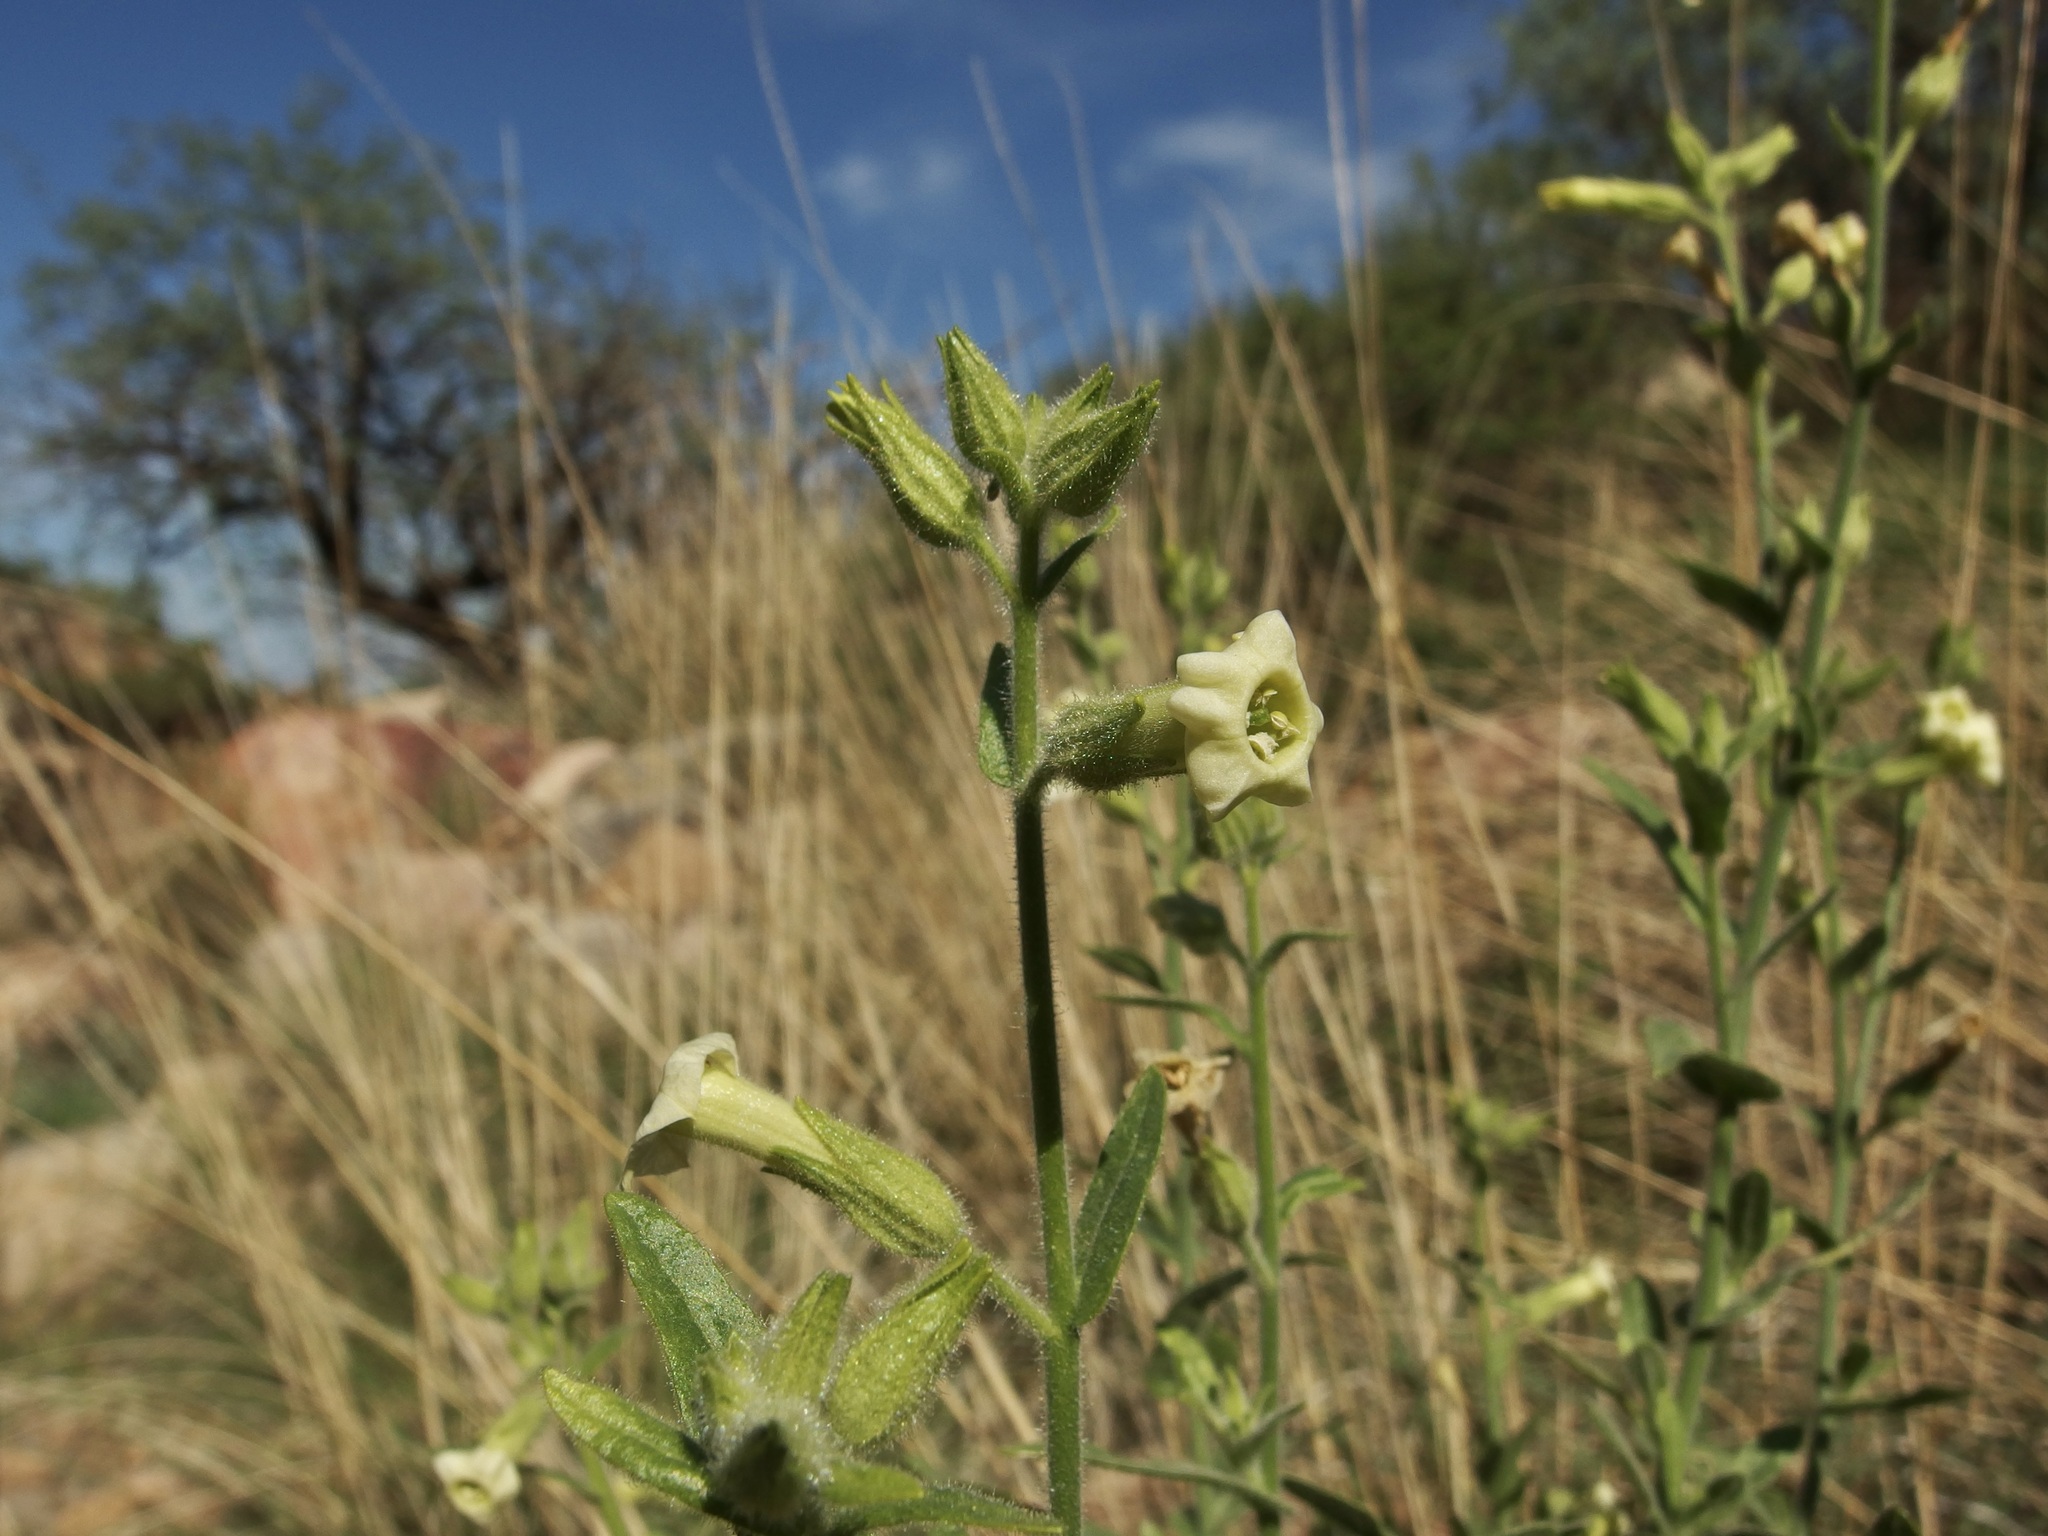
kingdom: Plantae
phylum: Tracheophyta
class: Magnoliopsida
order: Solanales
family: Solanaceae
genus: Nicotiana
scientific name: Nicotiana obtusifolia
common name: Desert tobacco
